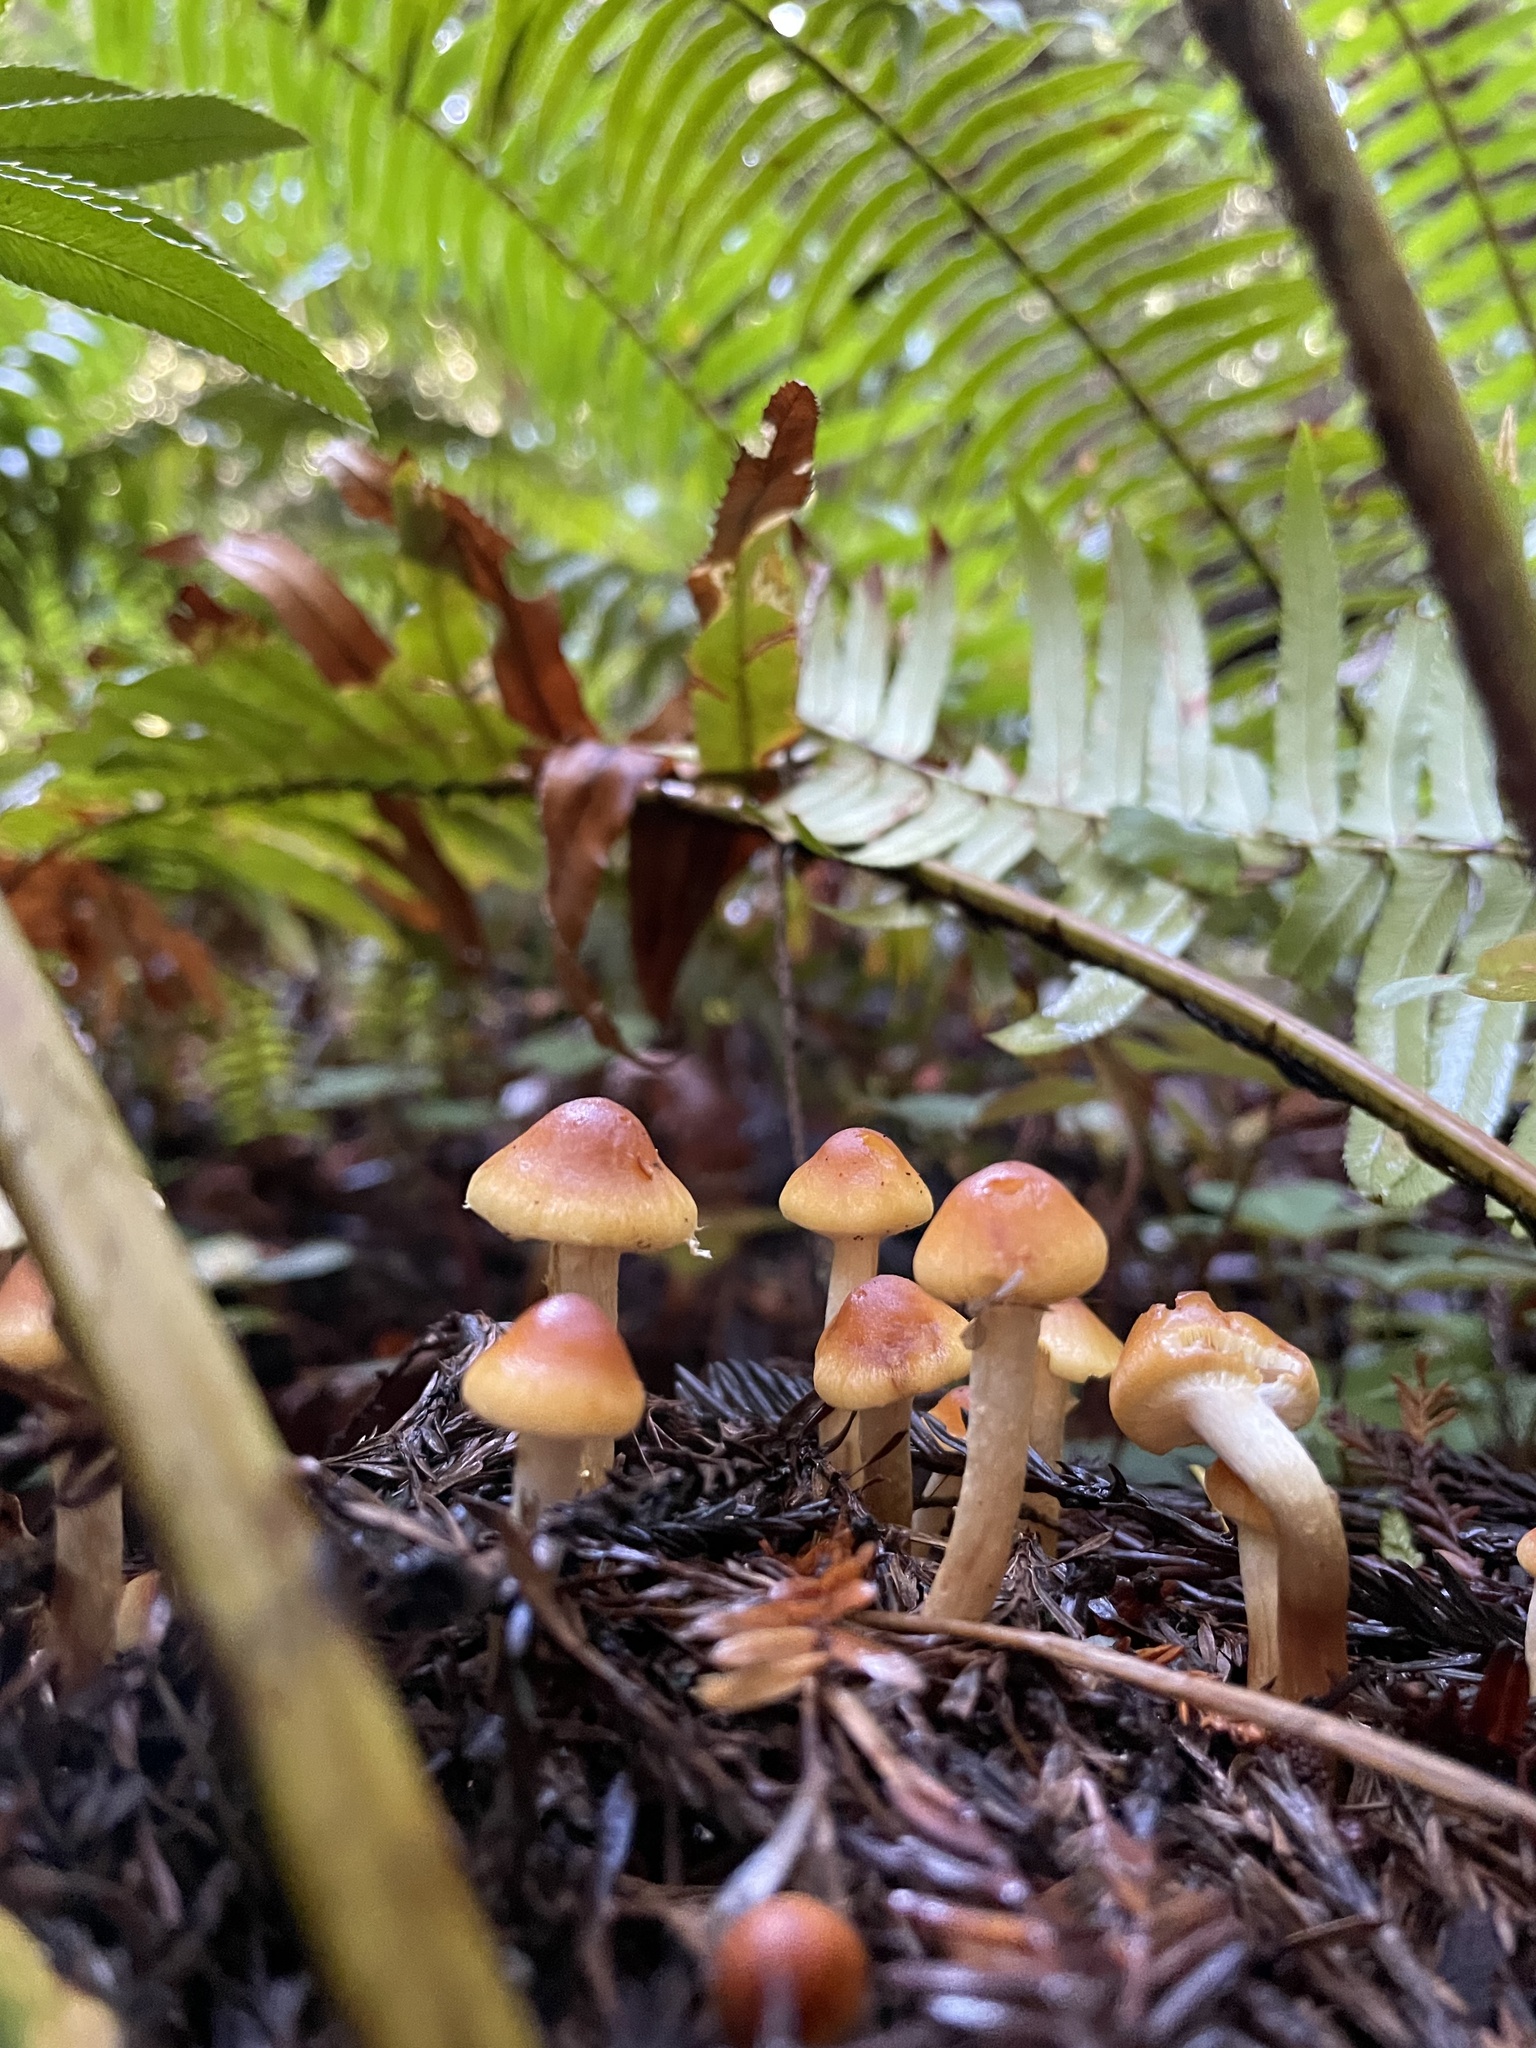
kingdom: Fungi
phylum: Basidiomycota
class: Agaricomycetes
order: Agaricales
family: Strophariaceae
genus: Hypholoma
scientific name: Hypholoma capnoides
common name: Conifer tuft
